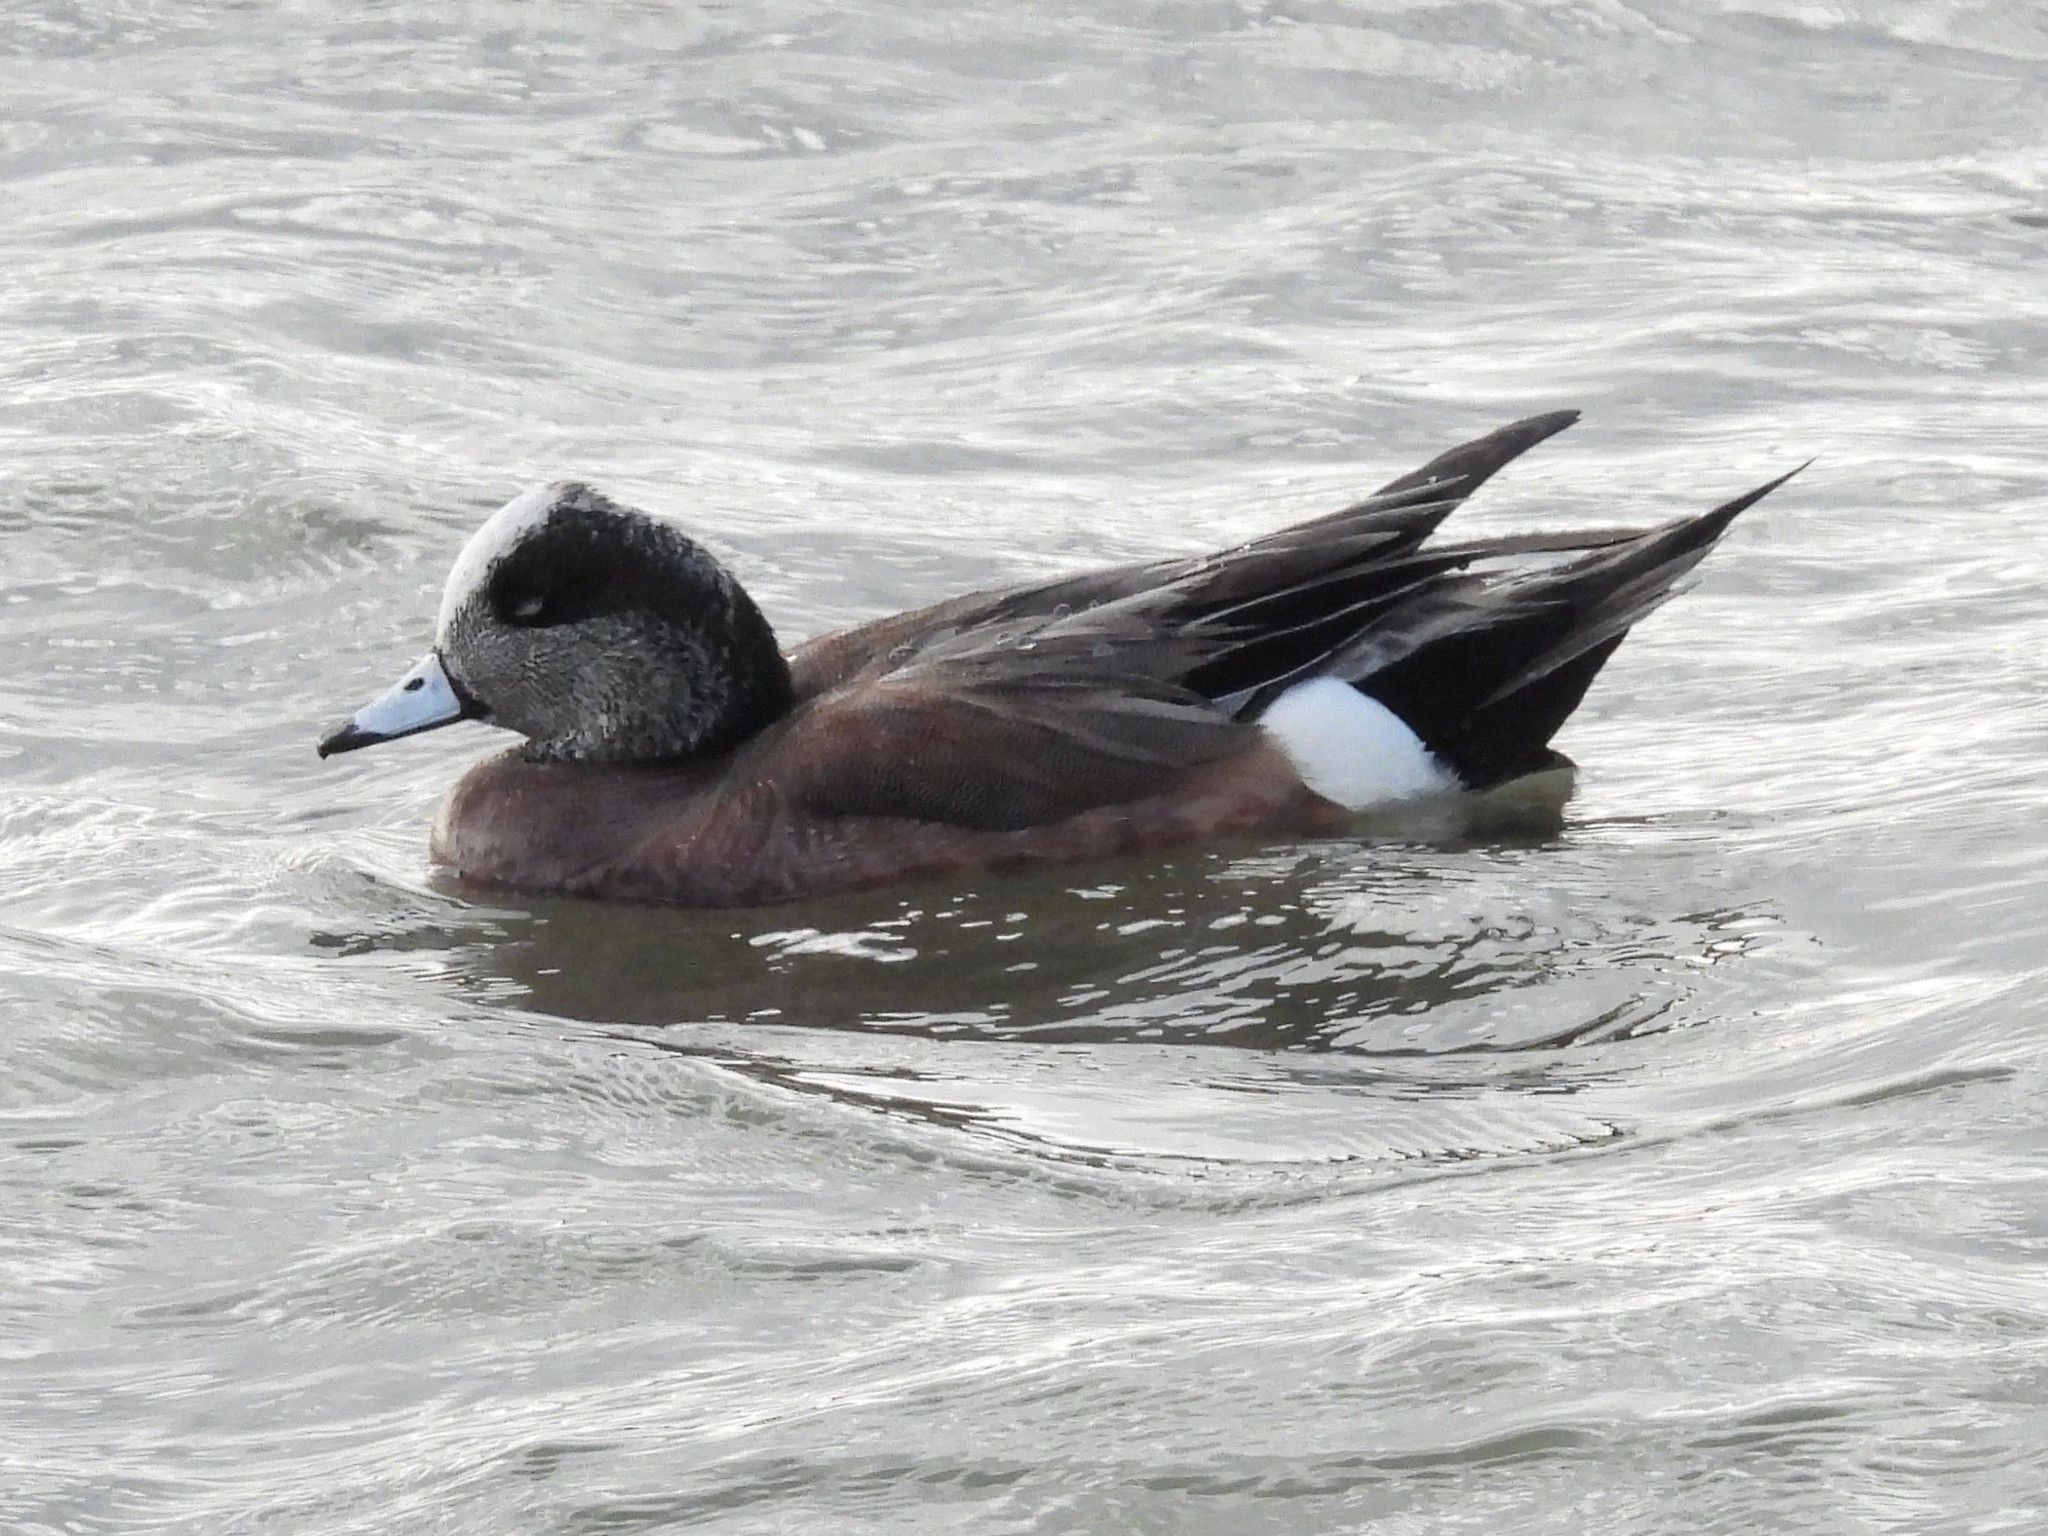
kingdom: Animalia
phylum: Chordata
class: Aves
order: Anseriformes
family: Anatidae
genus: Mareca
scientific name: Mareca americana
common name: American wigeon
